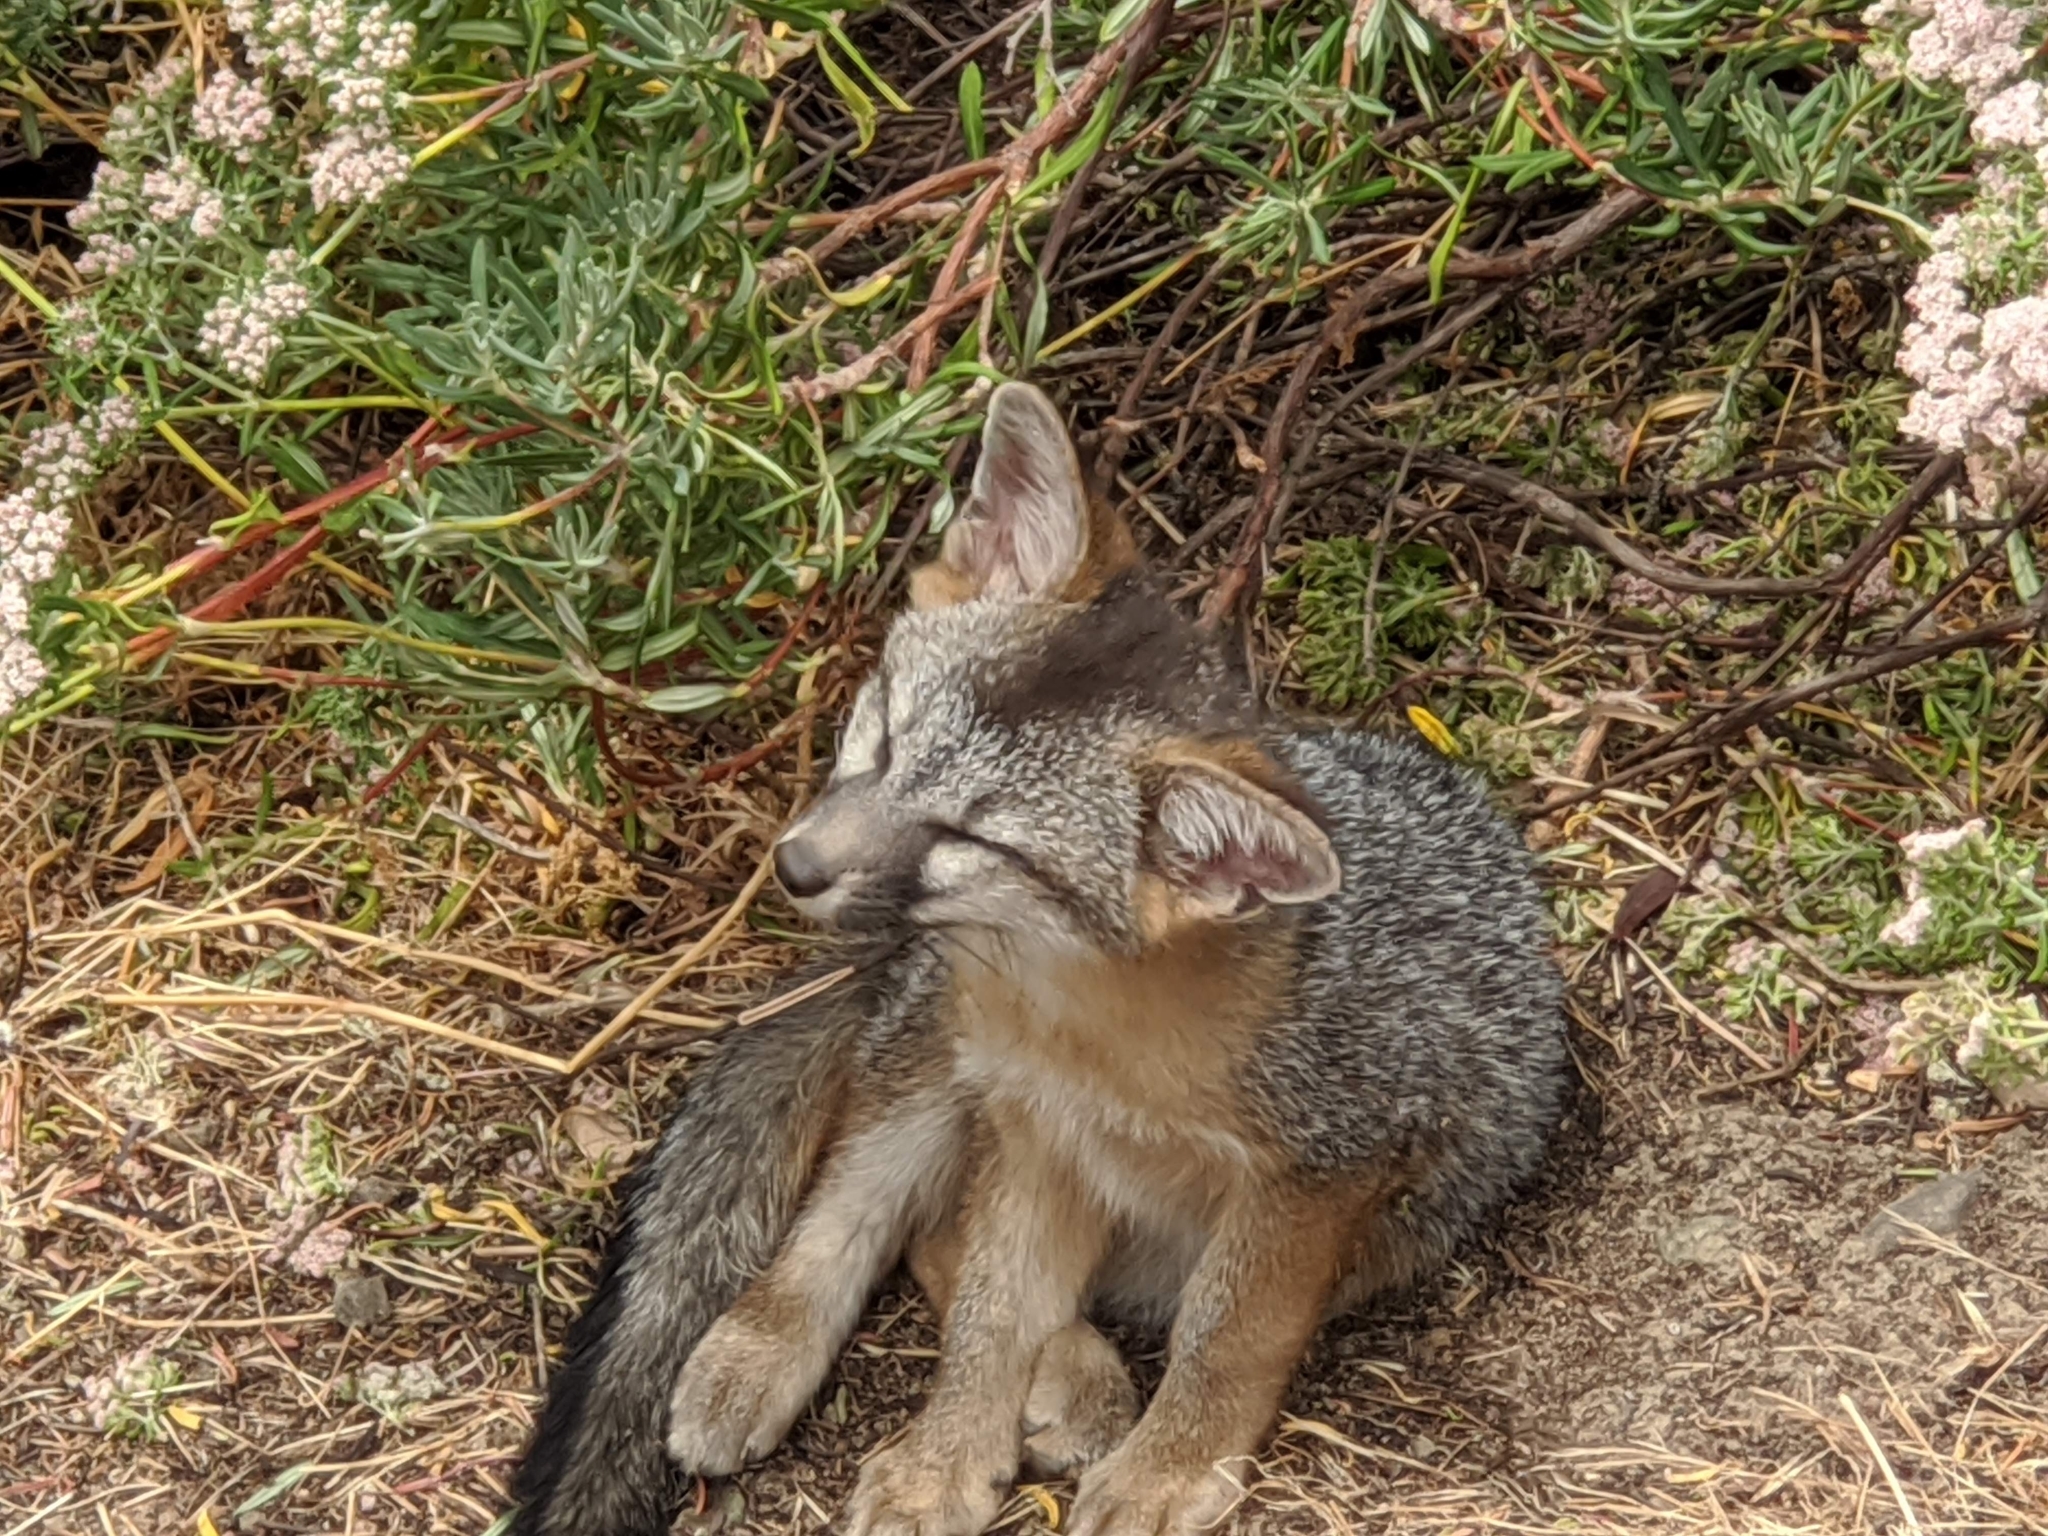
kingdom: Animalia
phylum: Chordata
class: Mammalia
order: Carnivora
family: Canidae
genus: Urocyon
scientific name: Urocyon cinereoargenteus
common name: Gray fox
